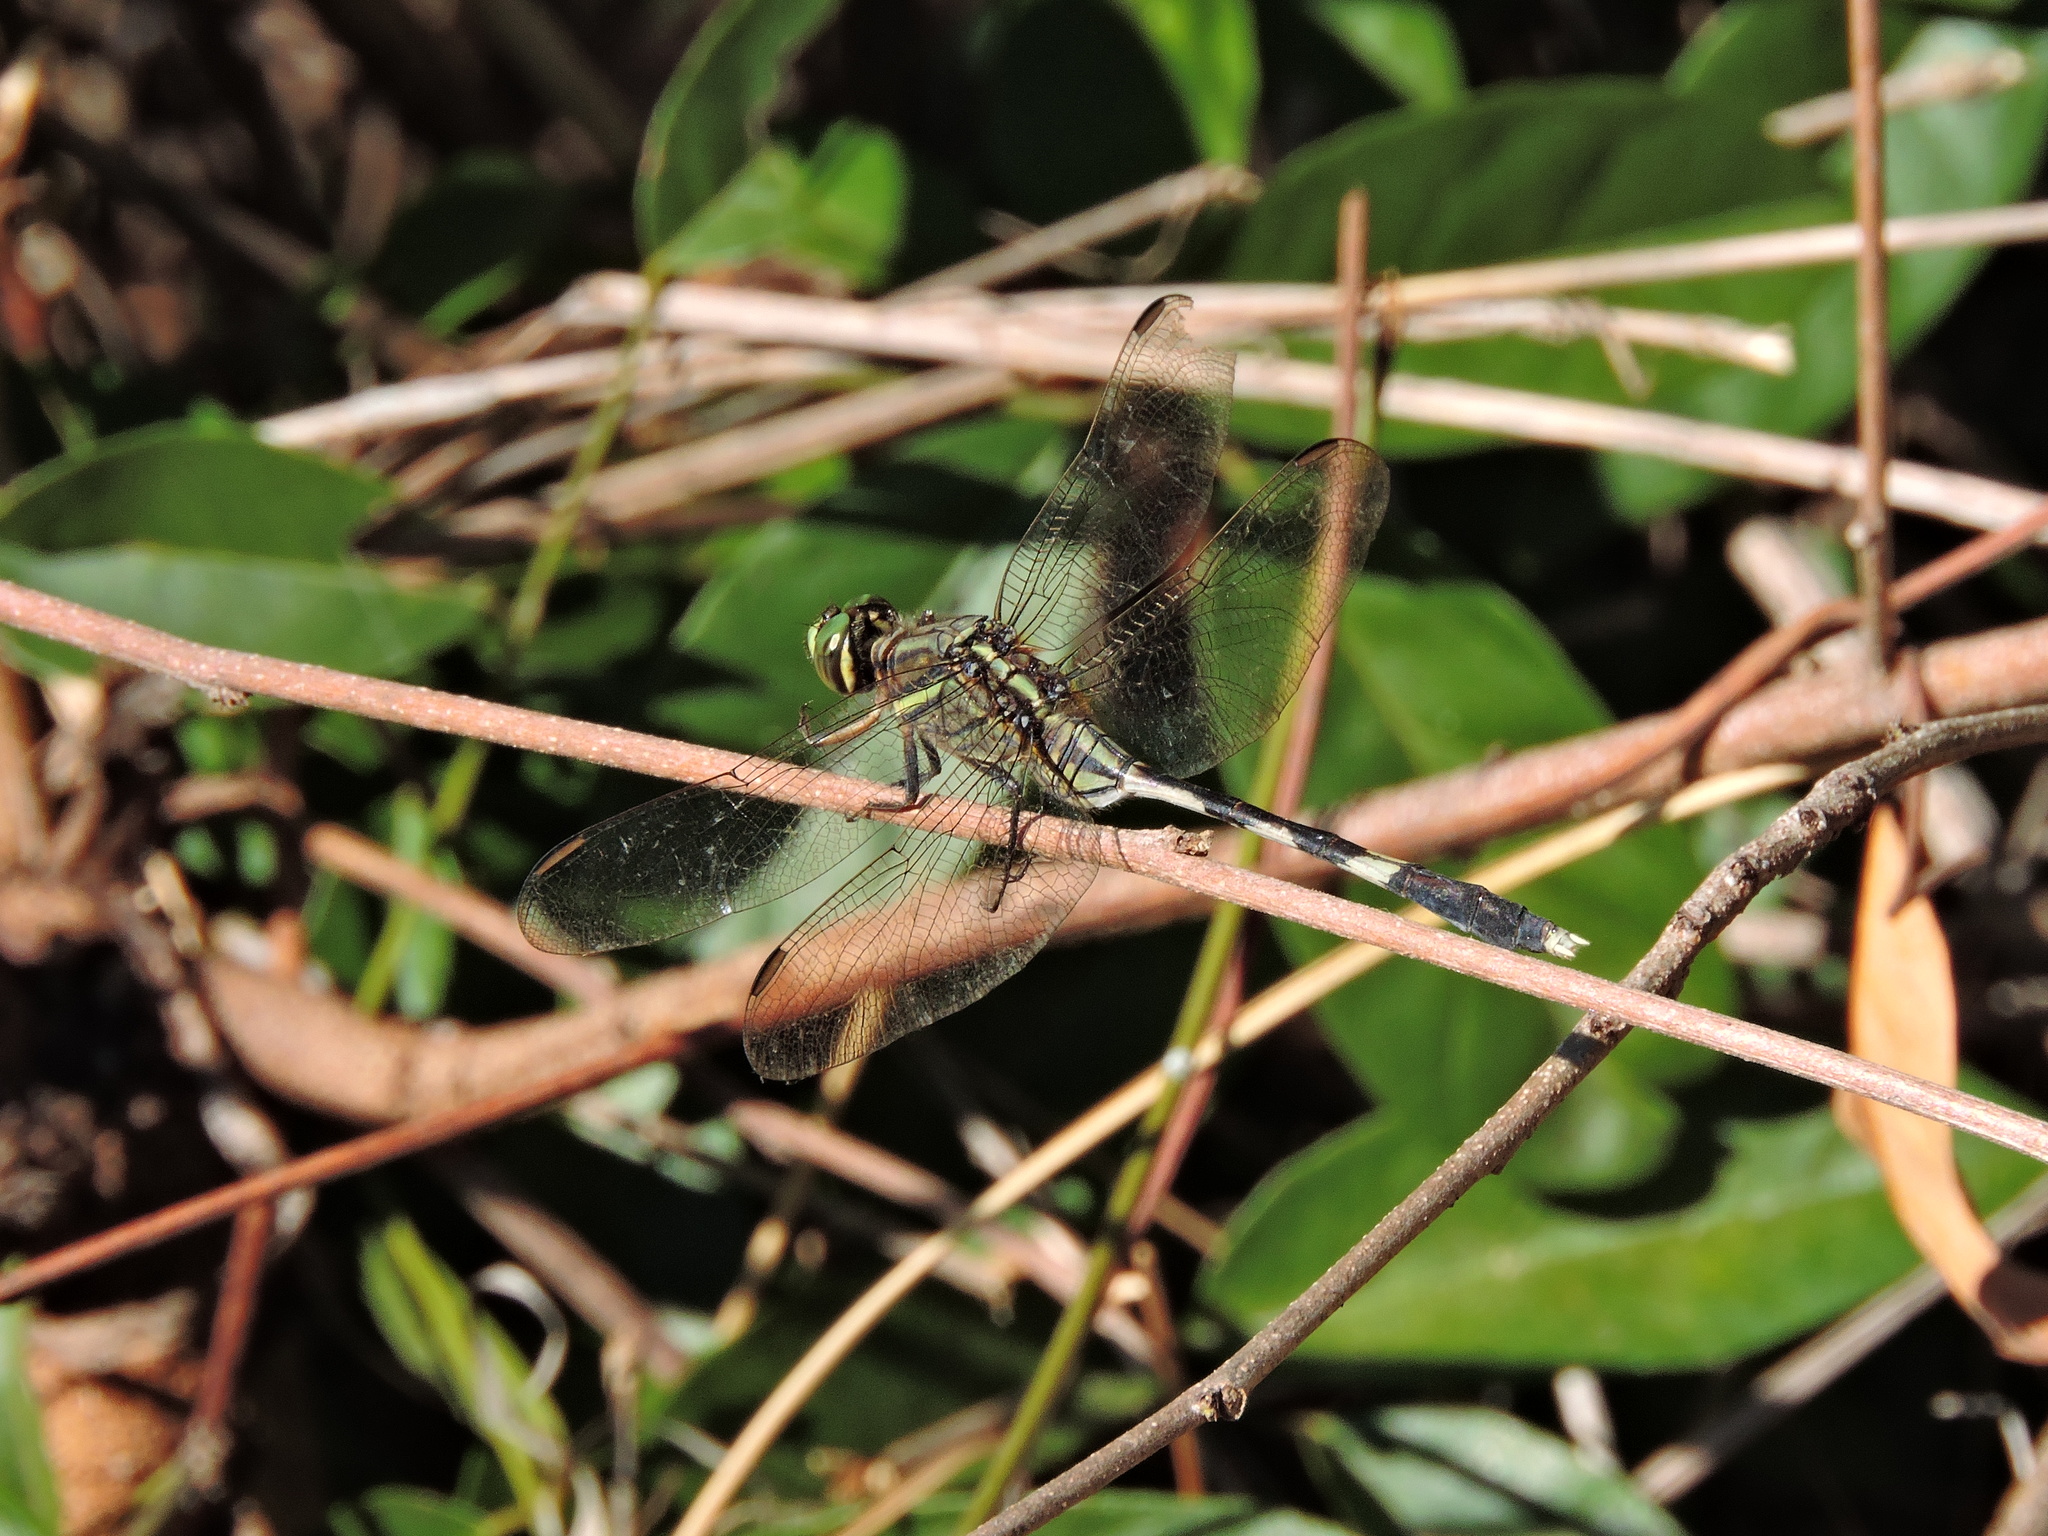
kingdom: Animalia
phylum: Arthropoda
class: Insecta
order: Odonata
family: Libellulidae
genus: Orthetrum
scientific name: Orthetrum sabina
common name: Slender skimmer
